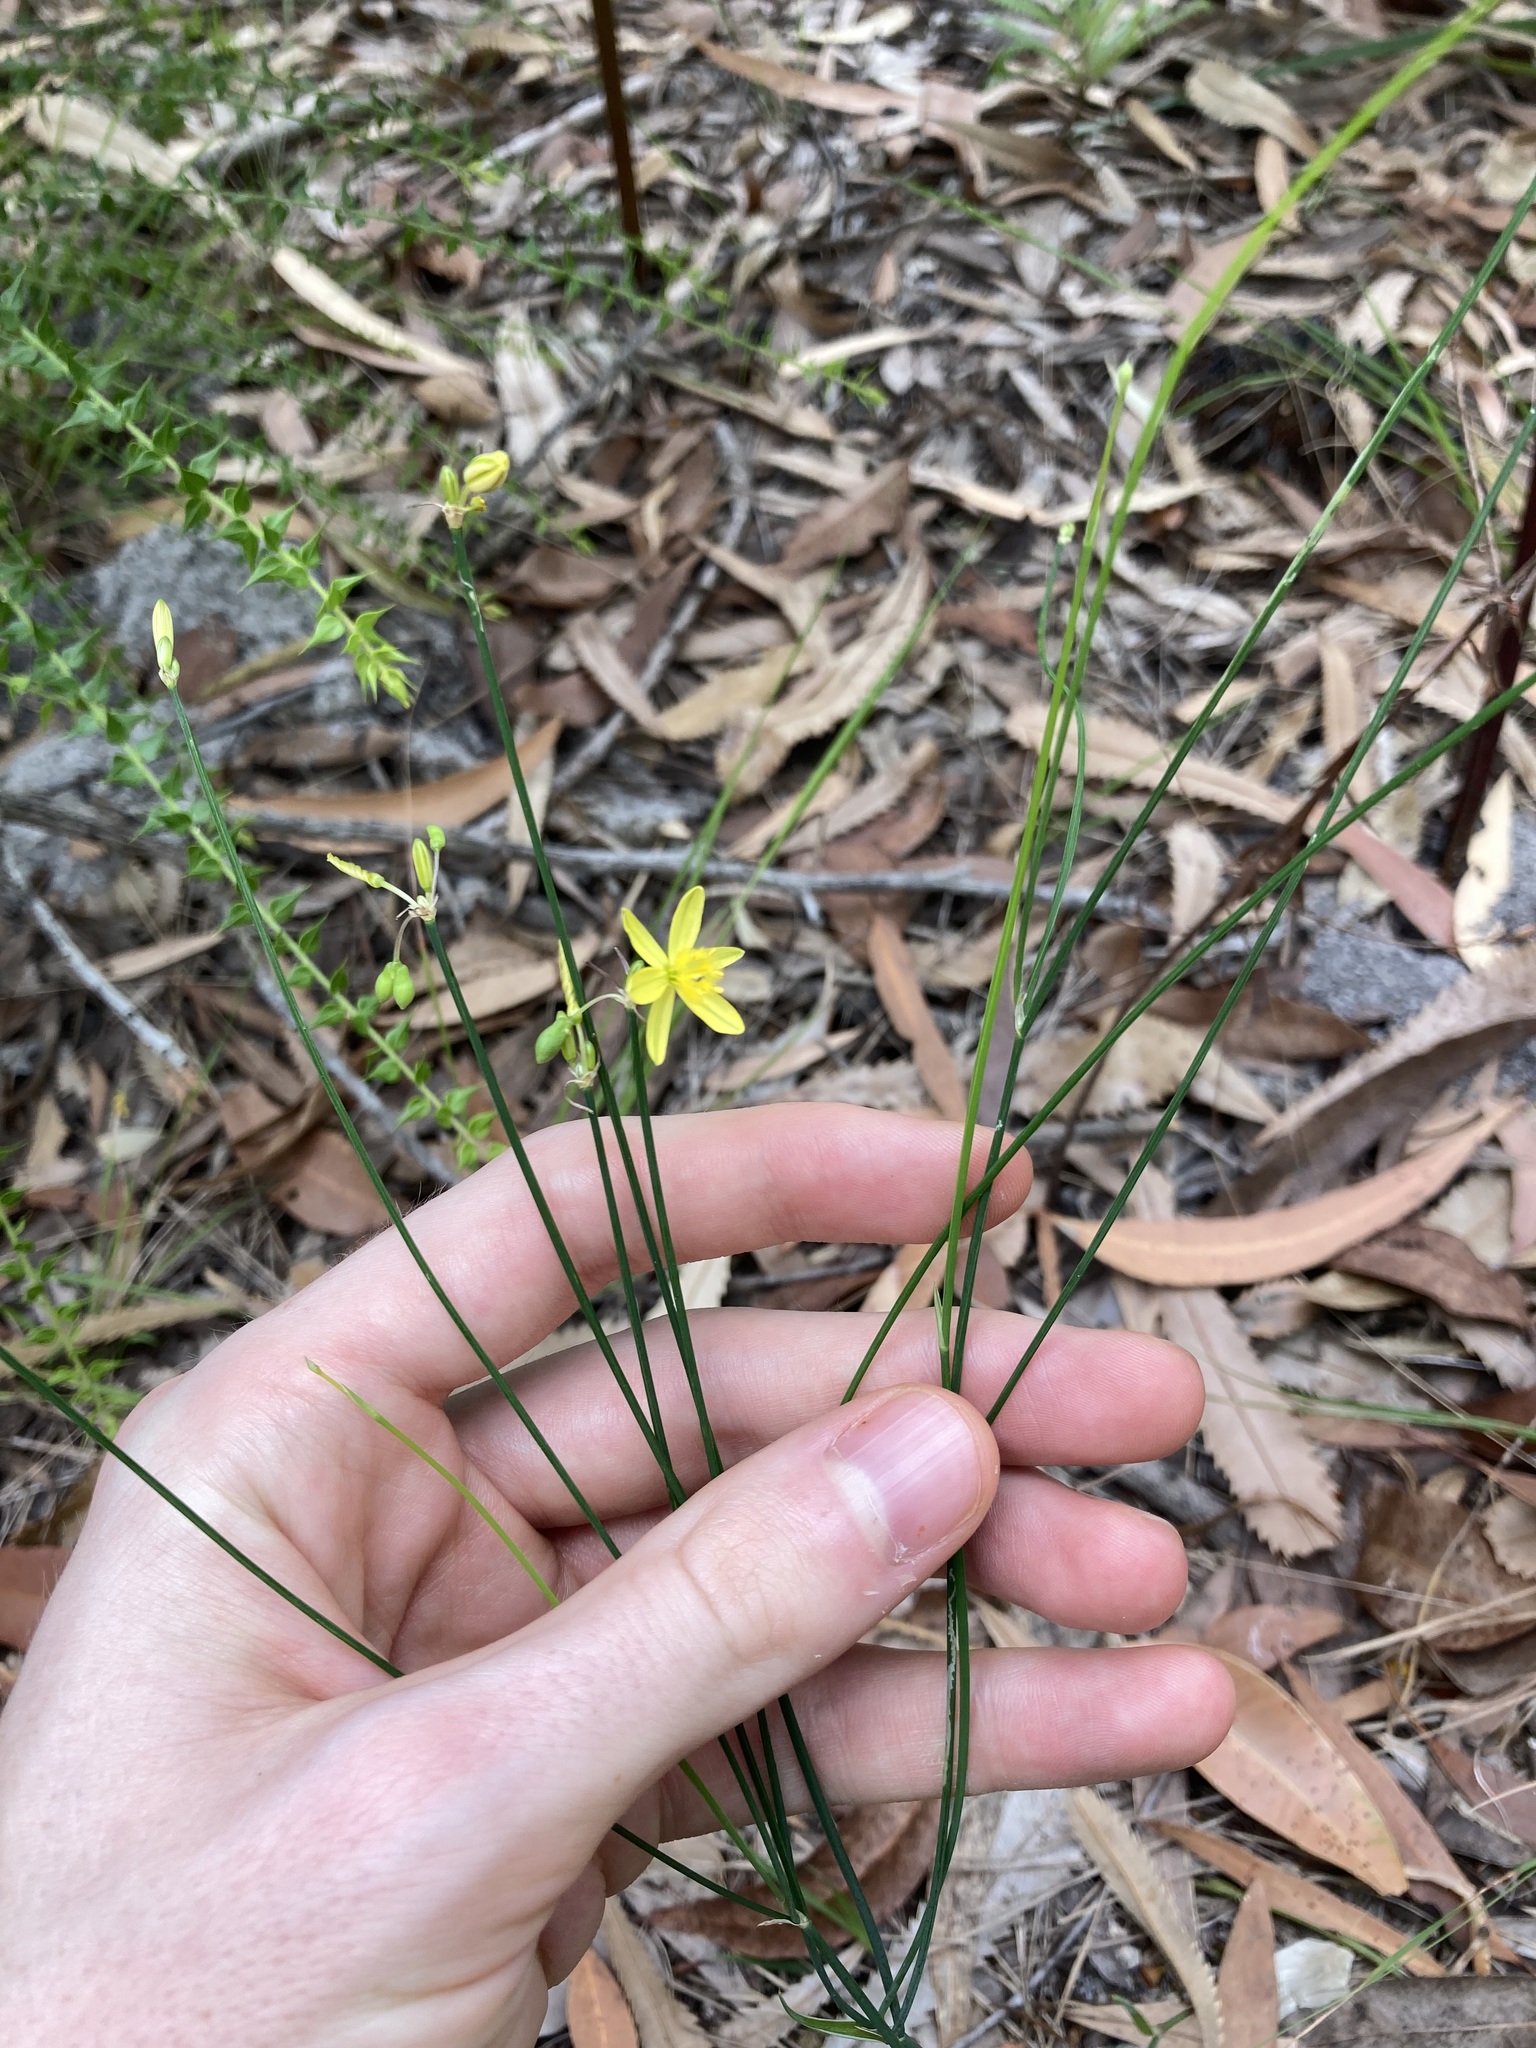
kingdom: Plantae
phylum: Tracheophyta
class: Liliopsida
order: Asparagales
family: Asphodelaceae
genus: Tricoryne
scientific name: Tricoryne elatior
